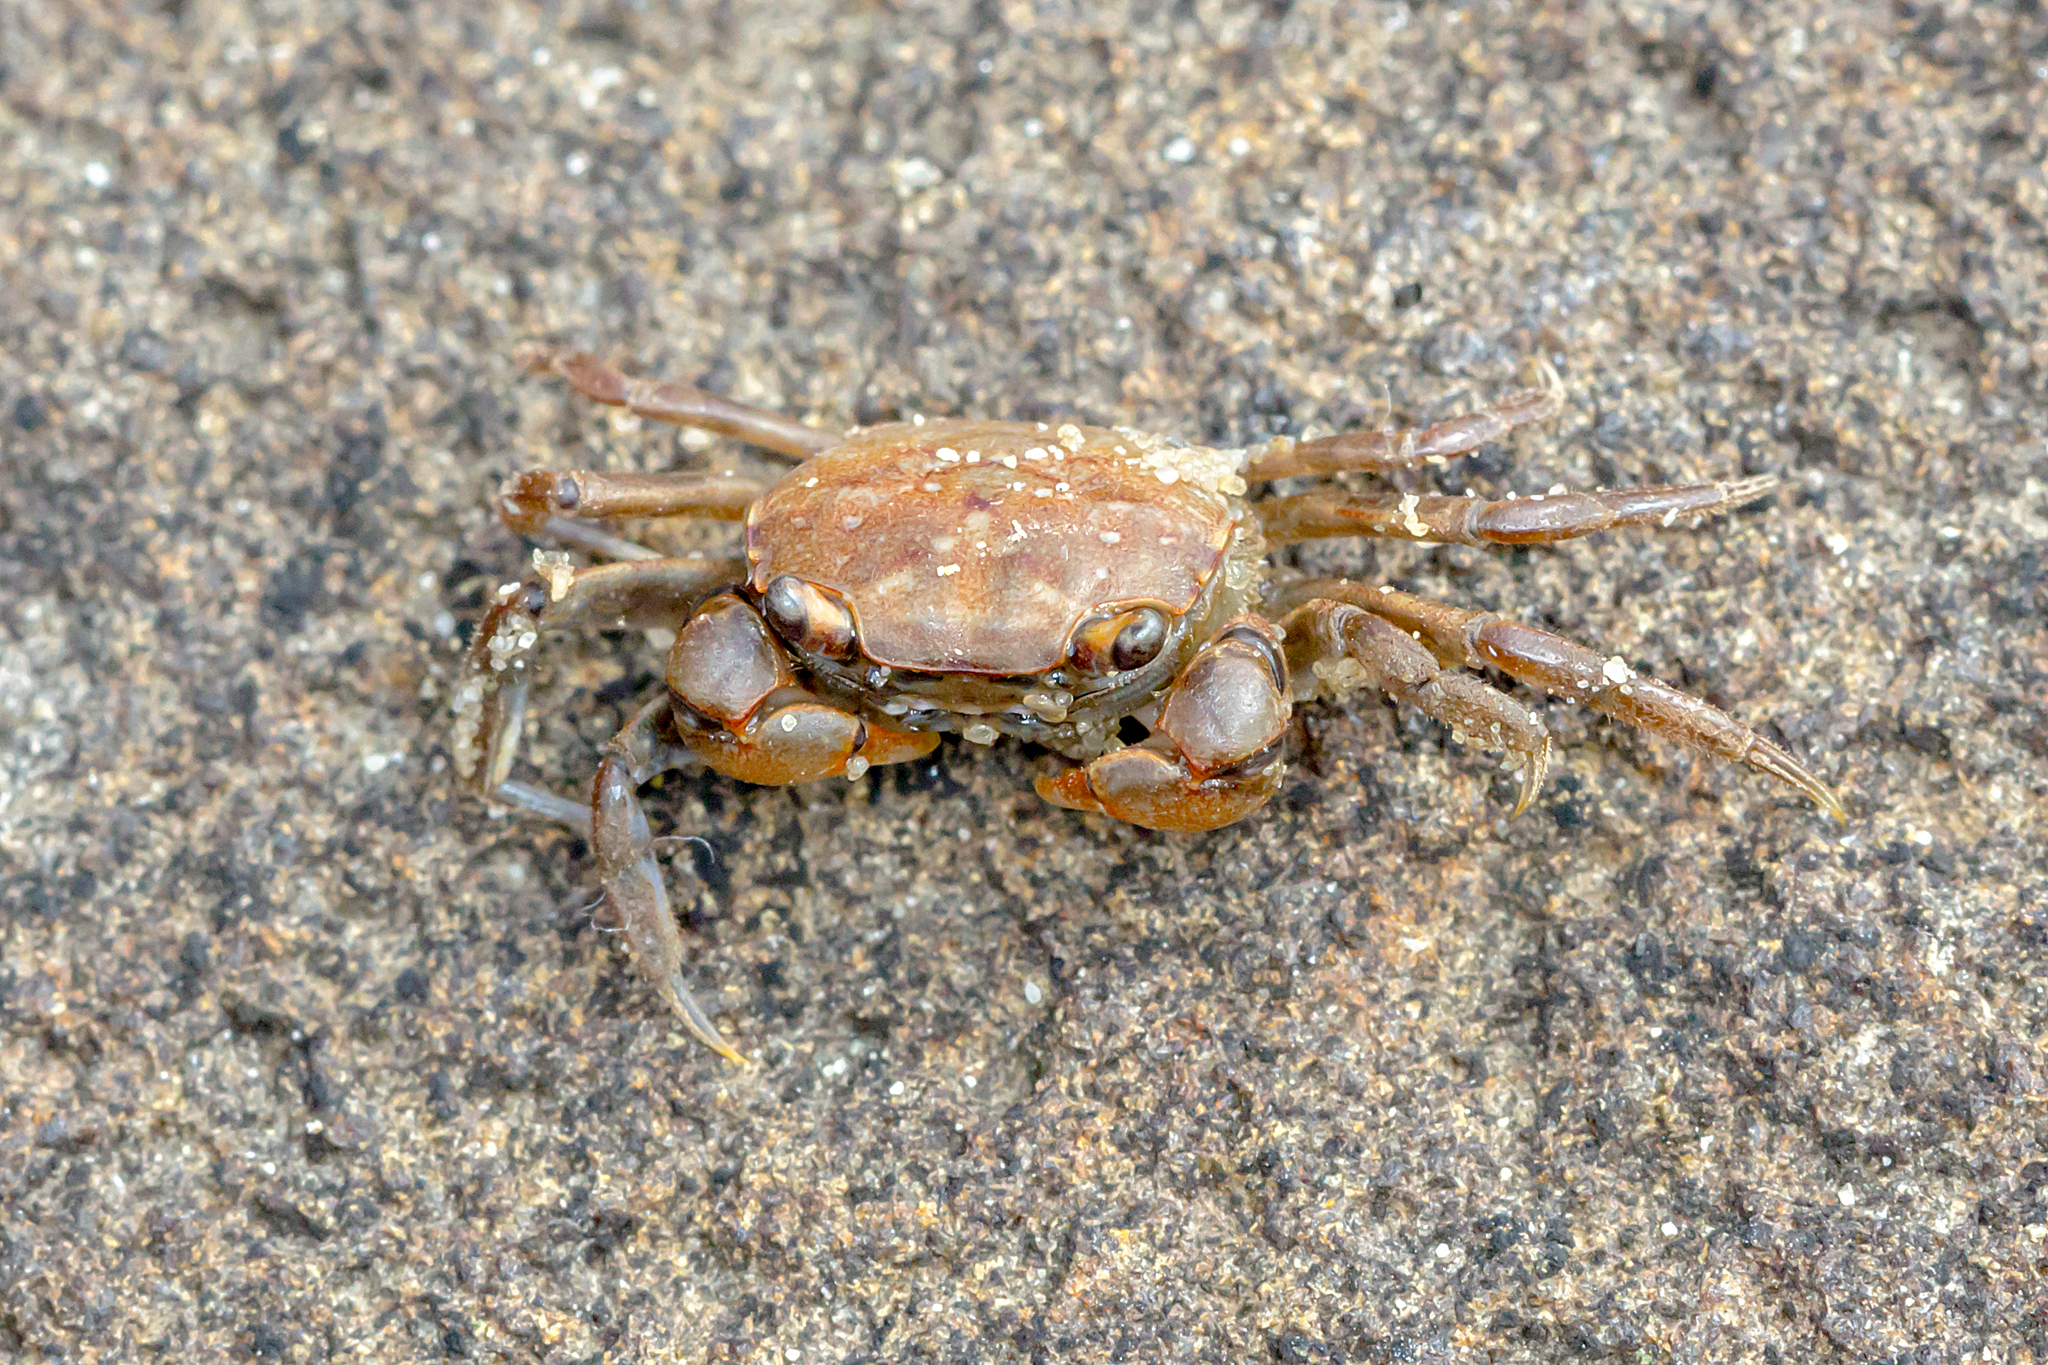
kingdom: Animalia
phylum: Arthropoda
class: Malacostraca
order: Decapoda
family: Varunidae
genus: Helograpsus
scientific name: Helograpsus haswellianus
